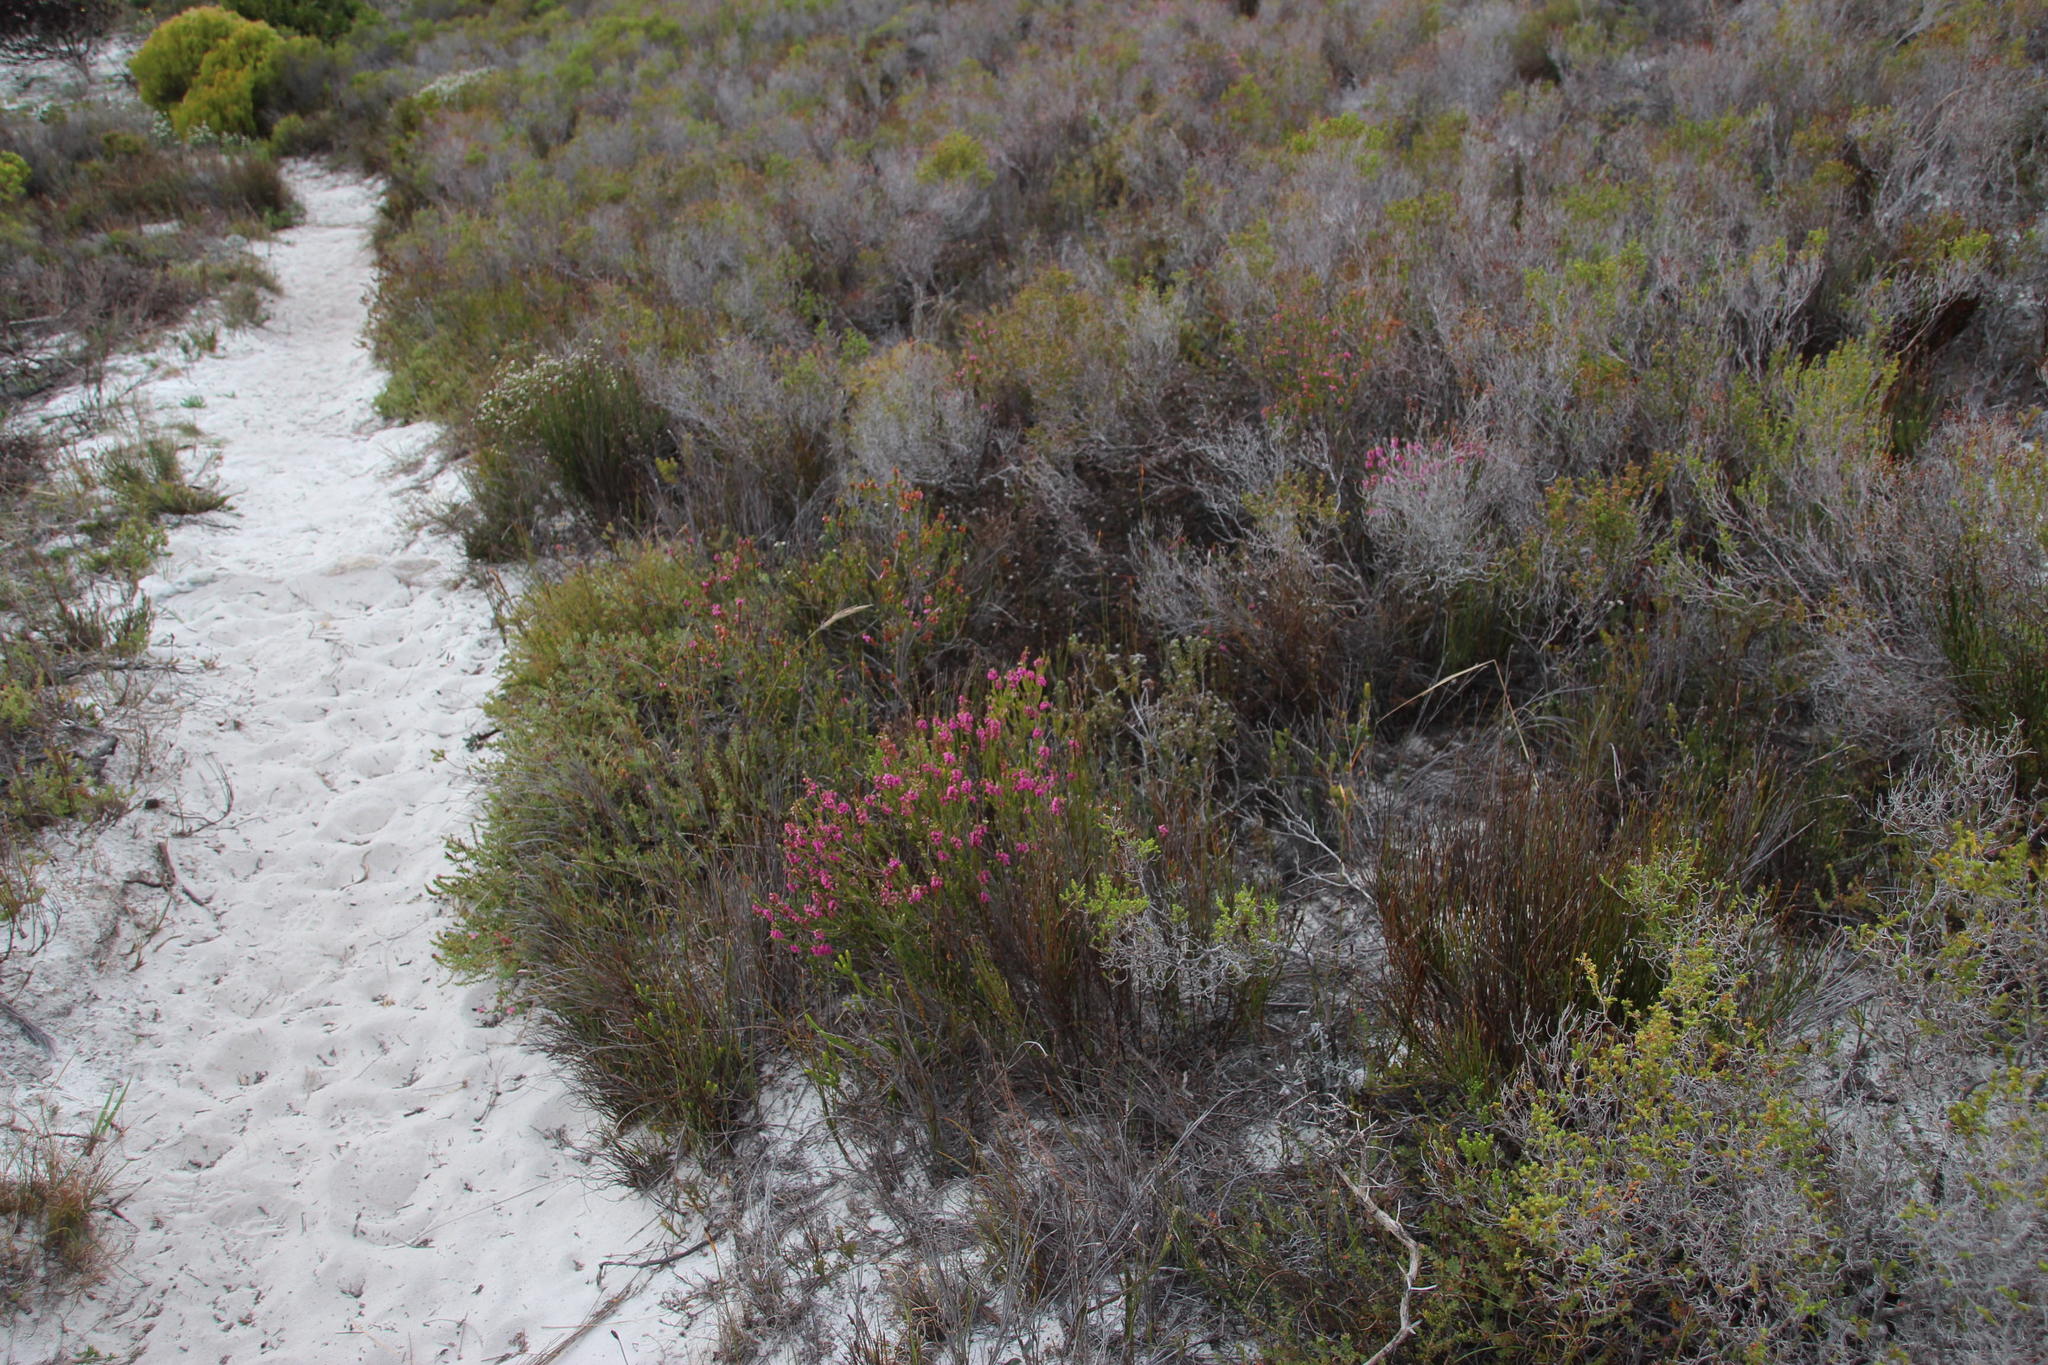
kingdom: Plantae
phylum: Tracheophyta
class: Magnoliopsida
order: Ericales
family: Ericaceae
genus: Erica
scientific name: Erica pulchella
